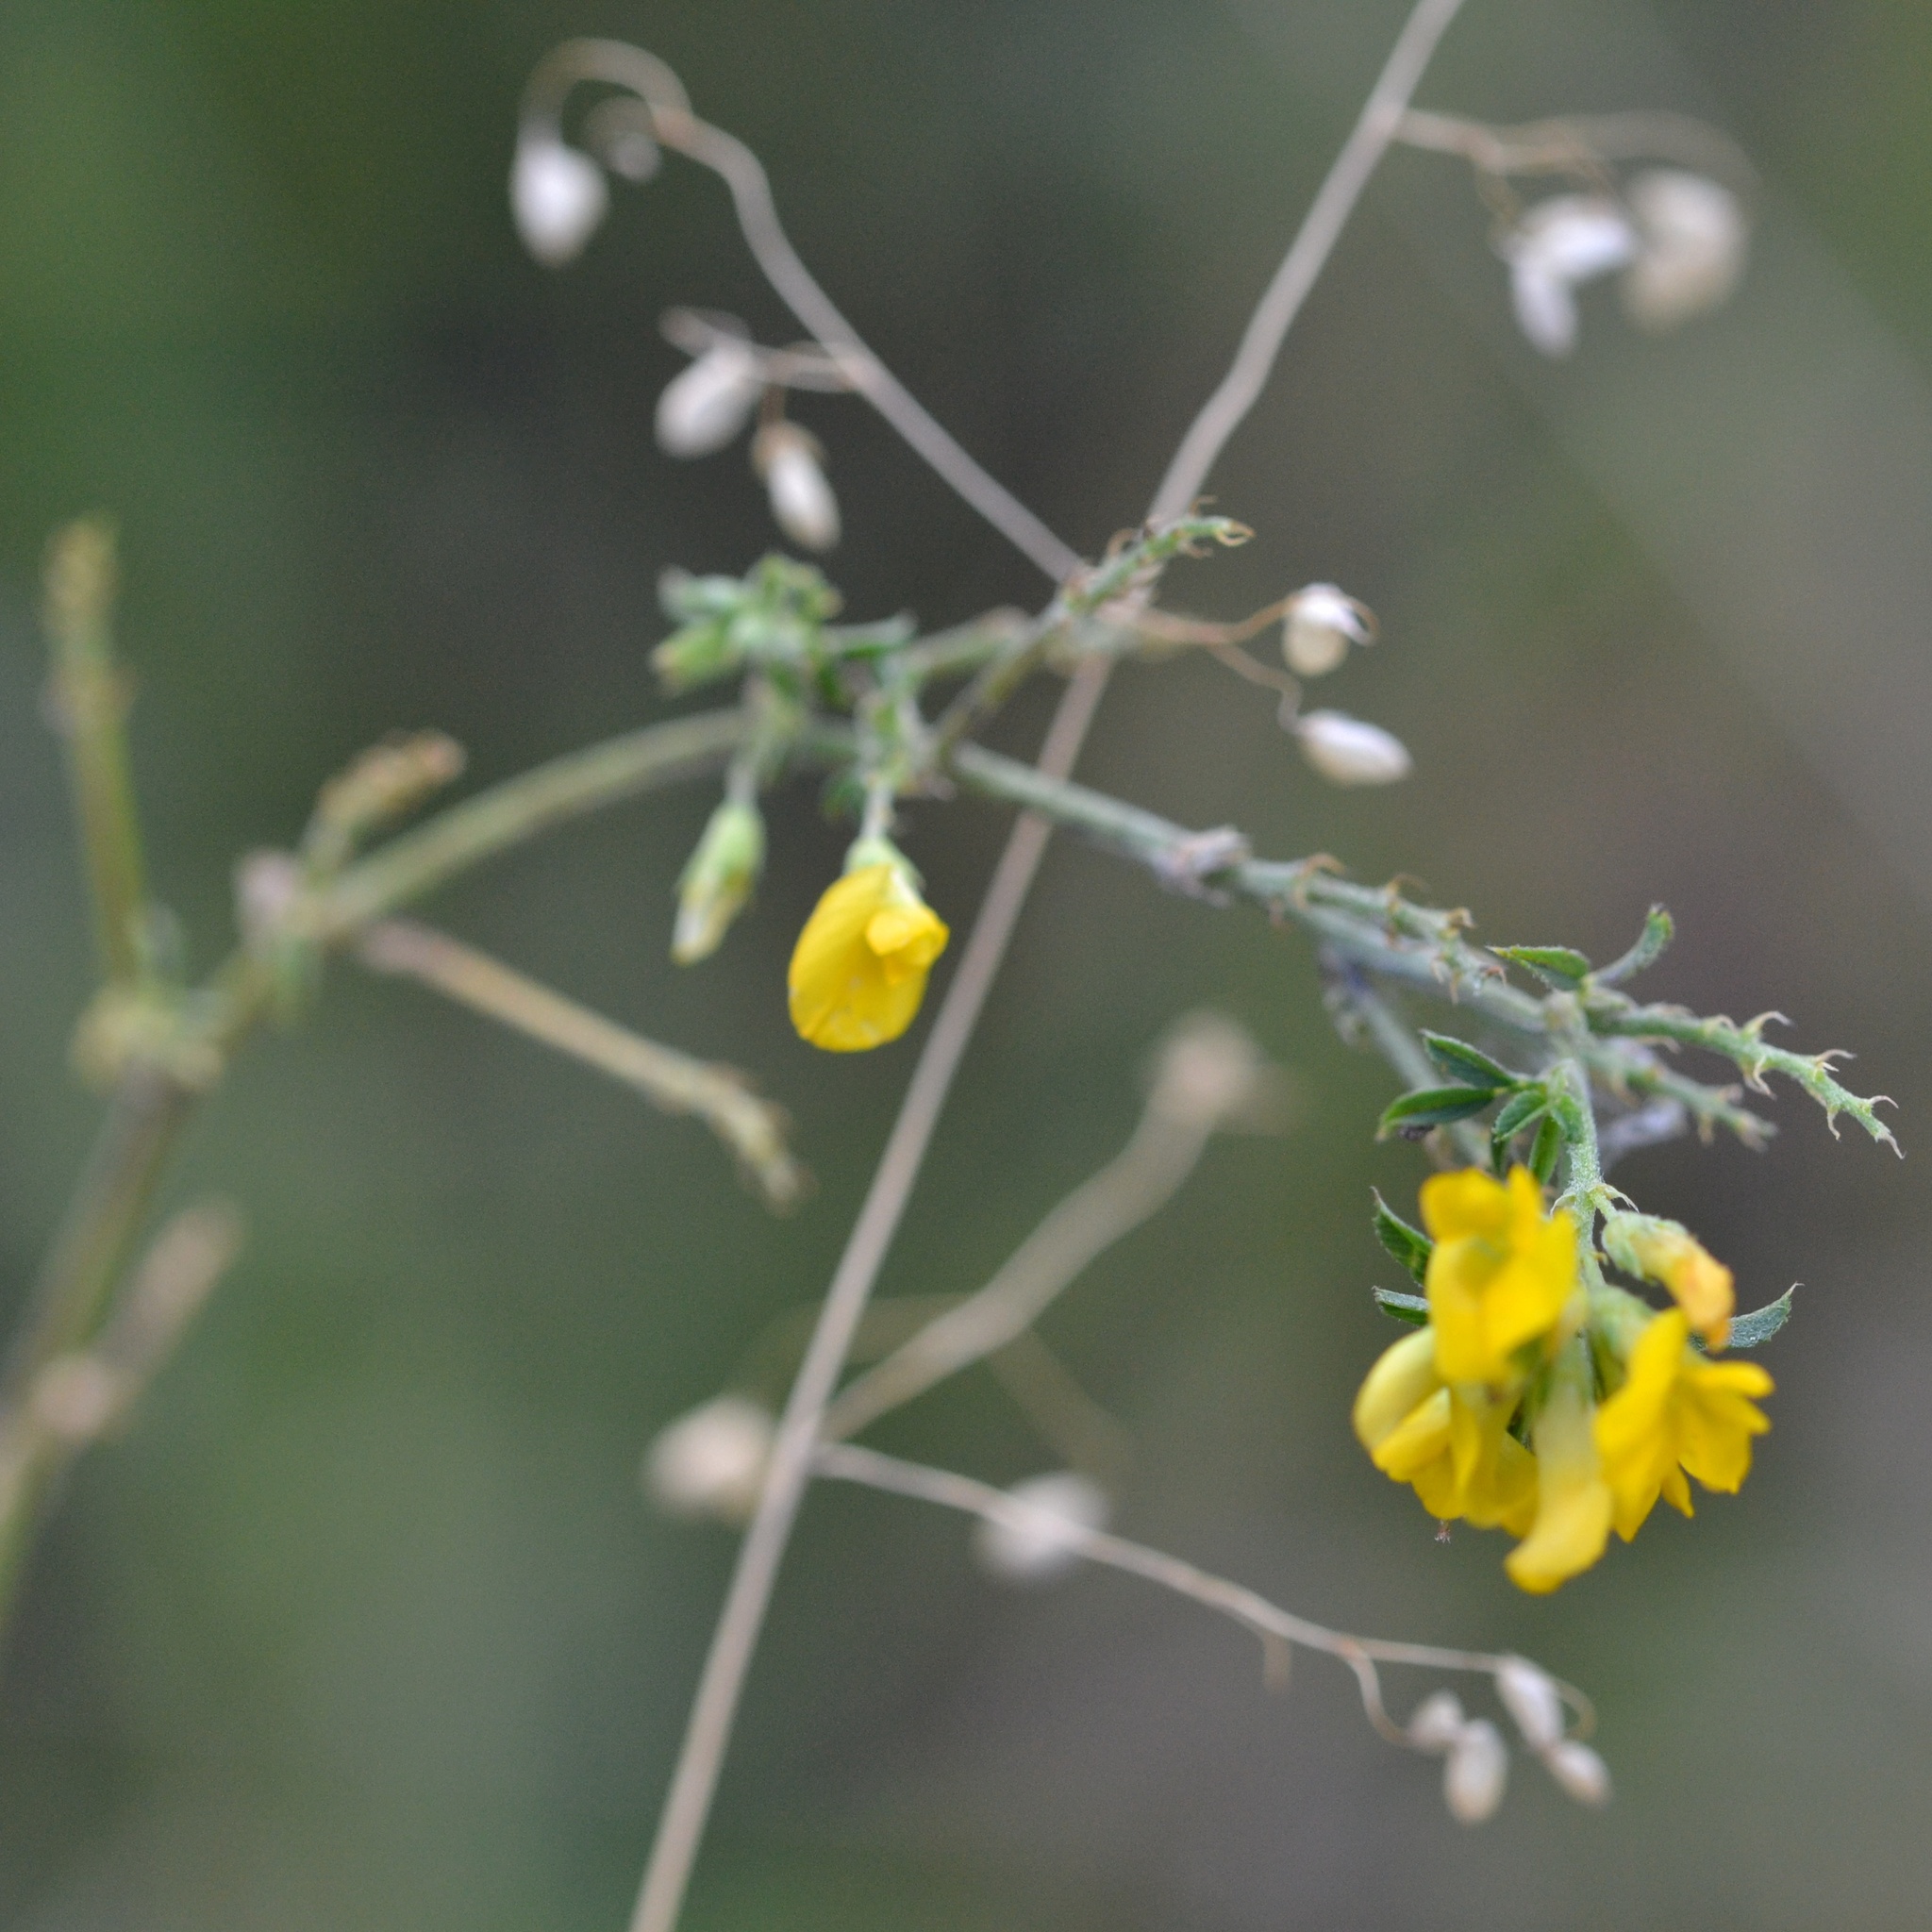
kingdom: Plantae
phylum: Tracheophyta
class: Magnoliopsida
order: Fabales
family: Fabaceae
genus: Medicago
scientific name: Medicago falcata
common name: Sickle medick
